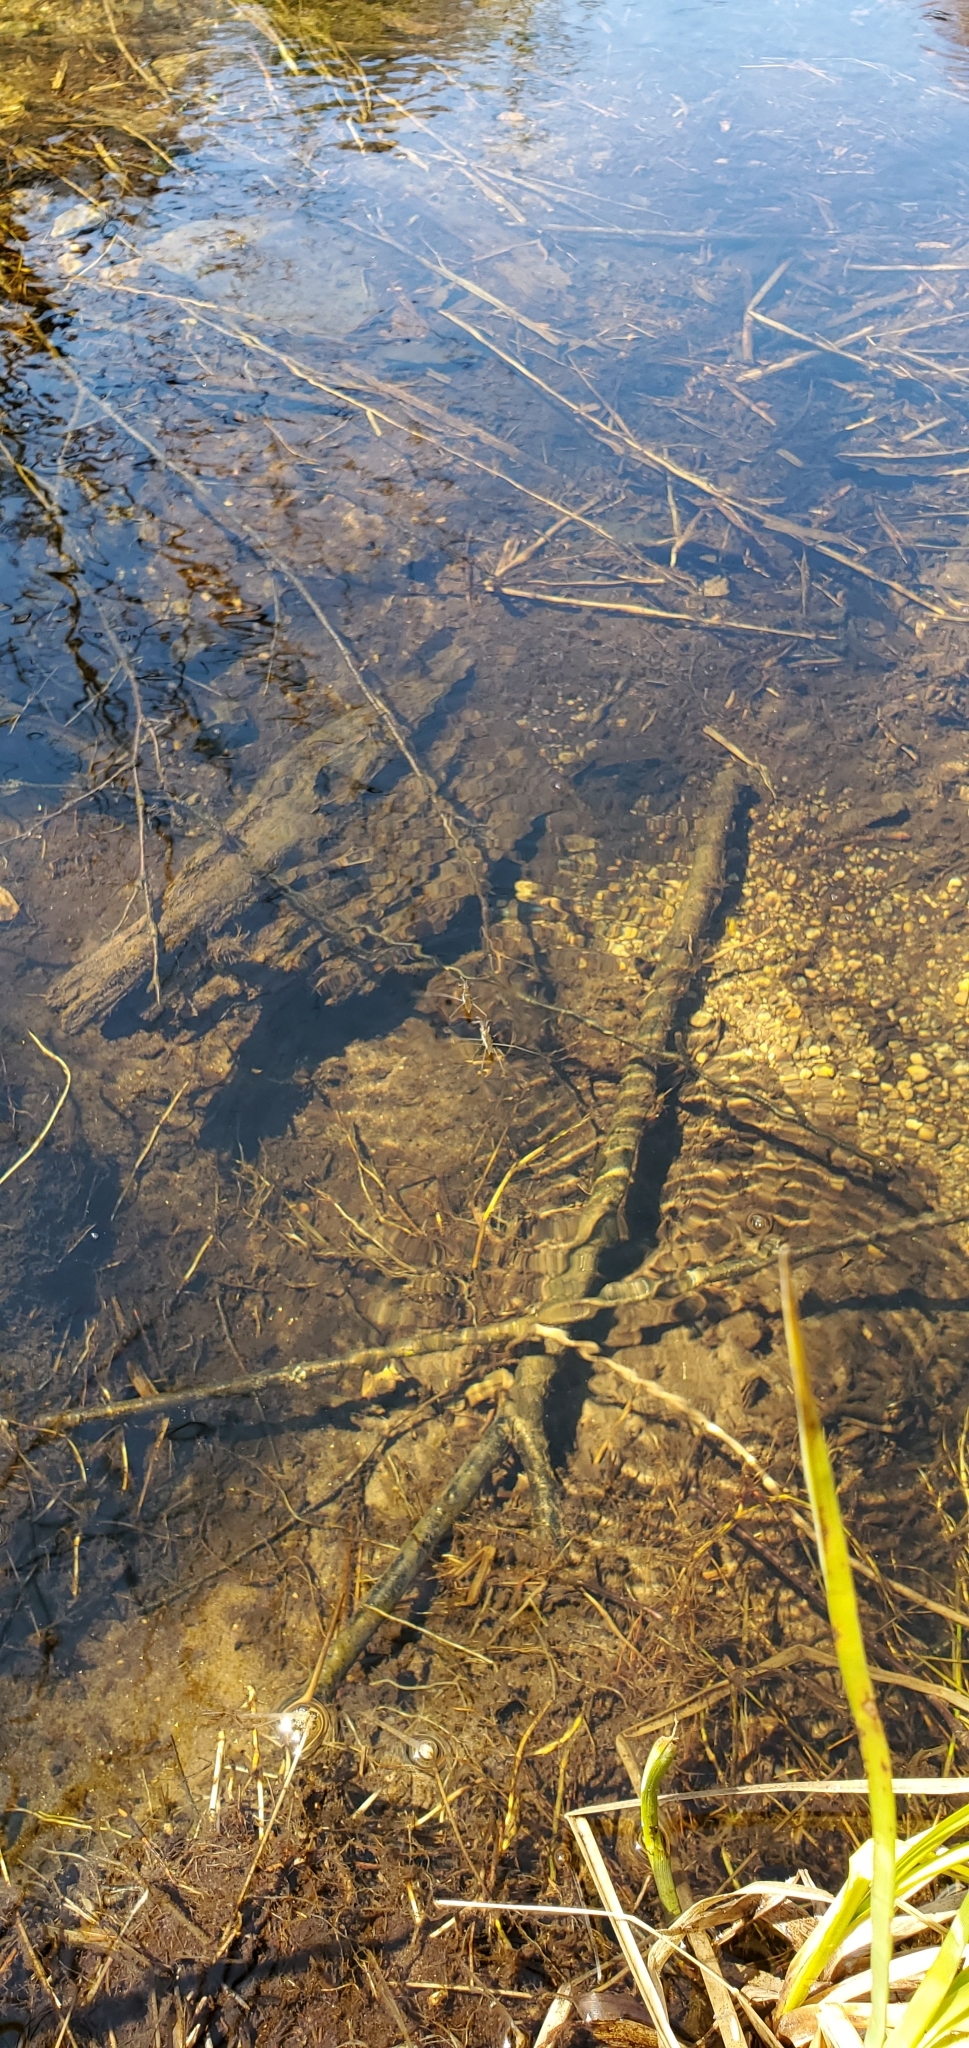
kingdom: Animalia
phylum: Arthropoda
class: Insecta
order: Hemiptera
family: Gerridae
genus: Aquarius
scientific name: Aquarius remigis
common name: Common water strider
